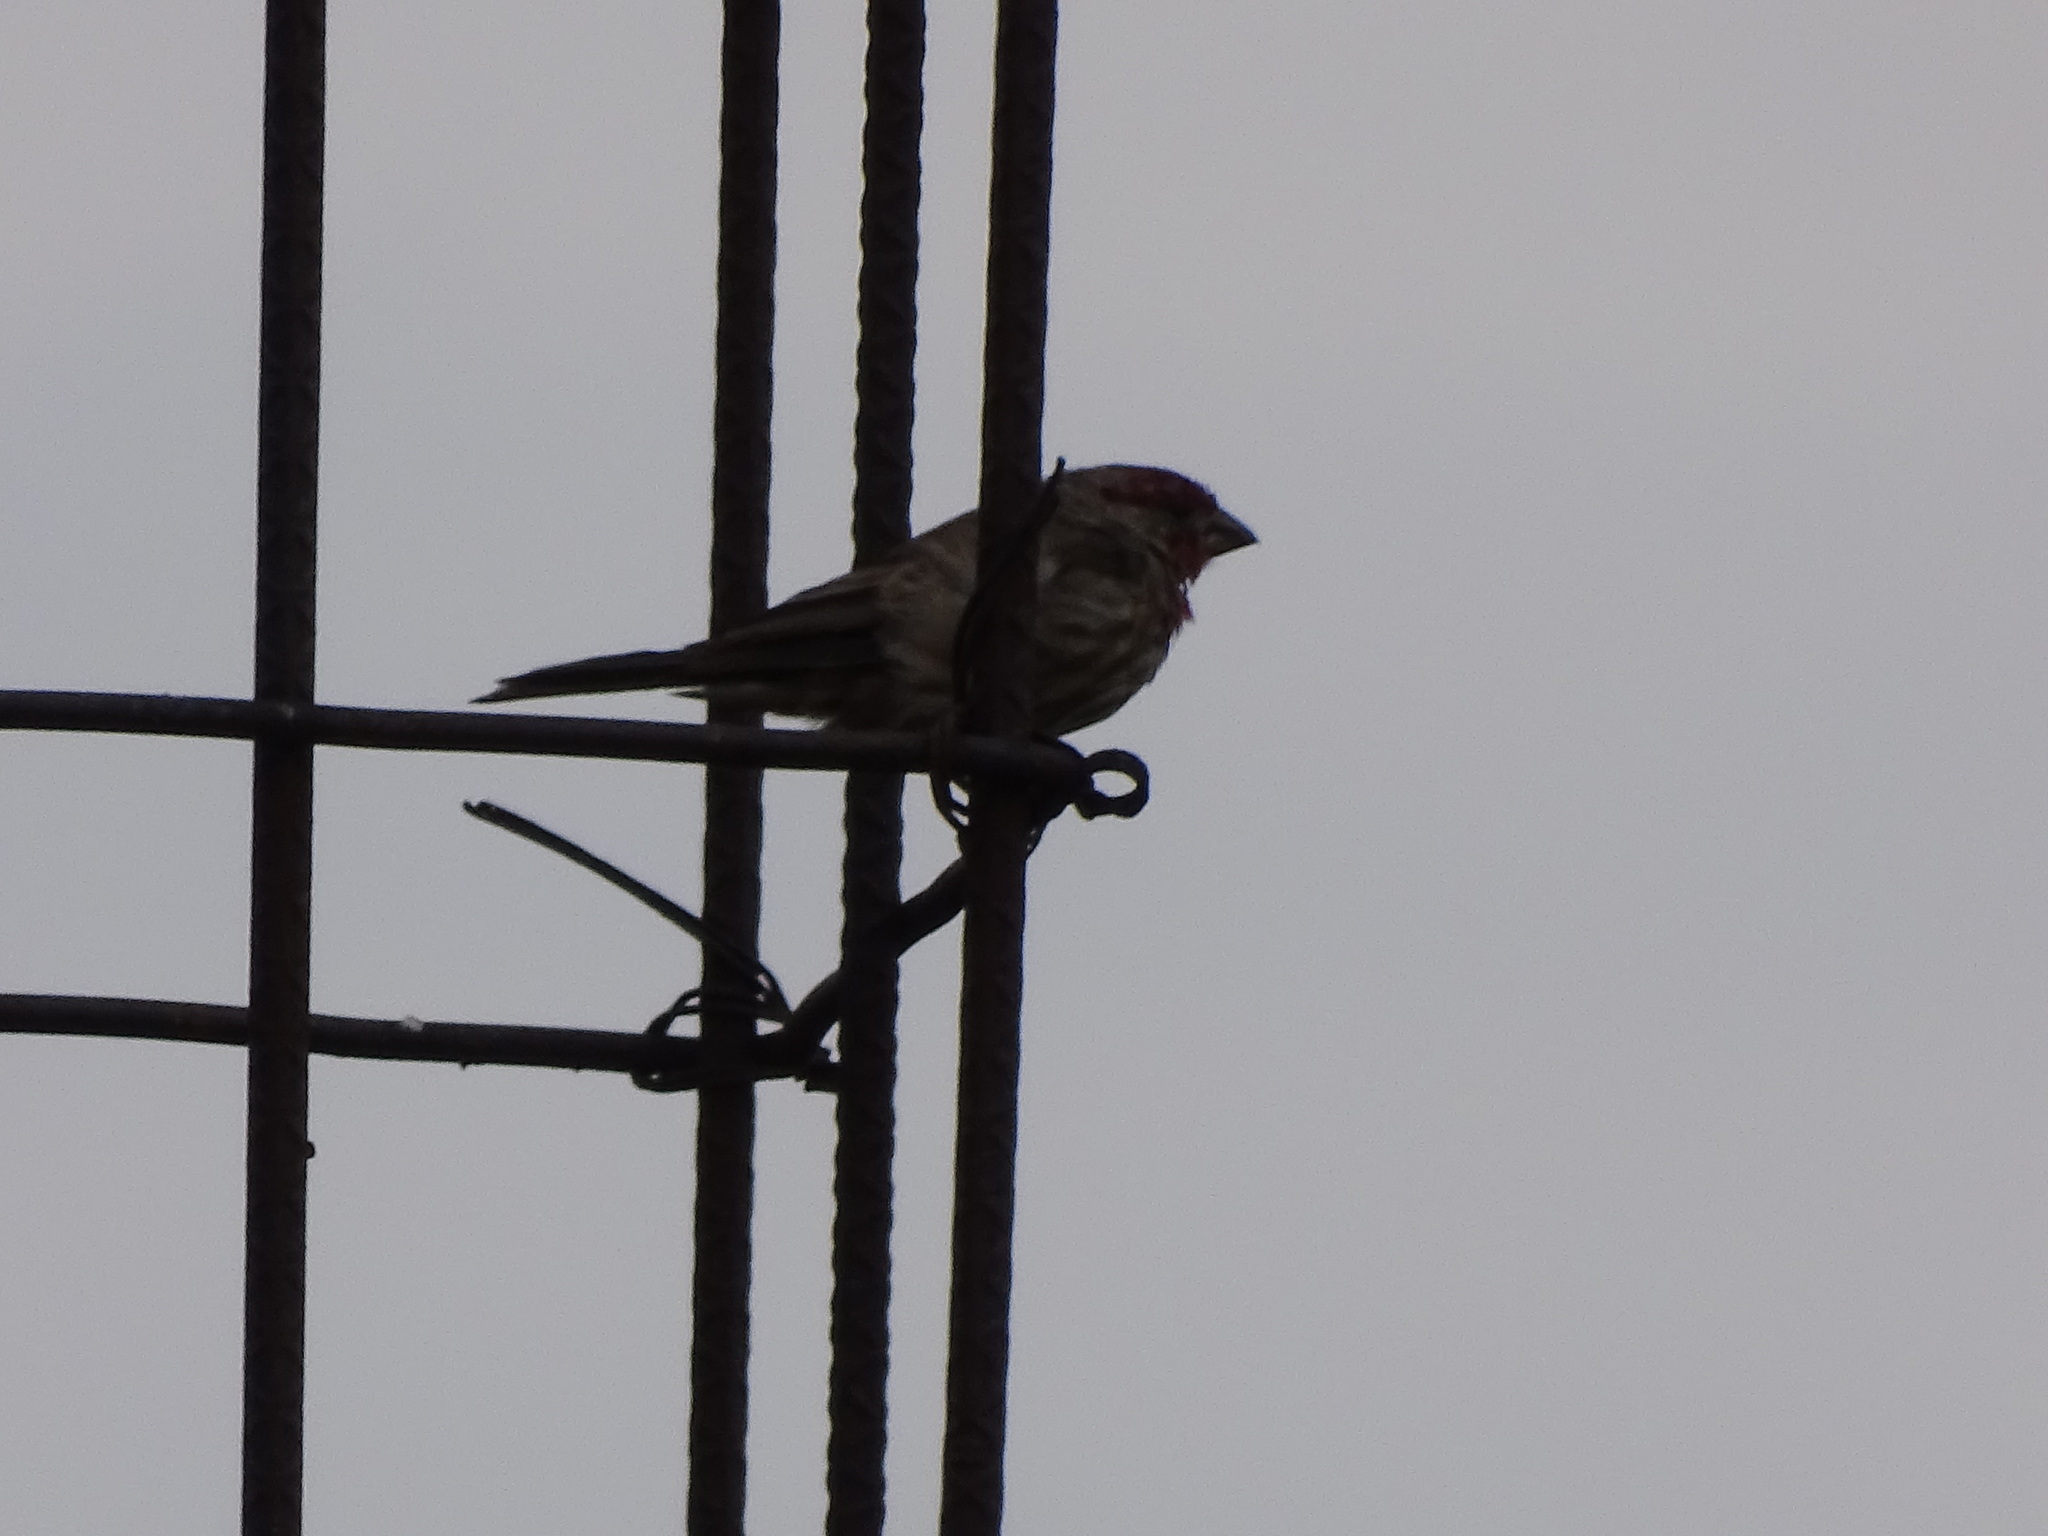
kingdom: Animalia
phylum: Chordata
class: Aves
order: Passeriformes
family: Fringillidae
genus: Haemorhous
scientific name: Haemorhous mexicanus
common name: House finch
